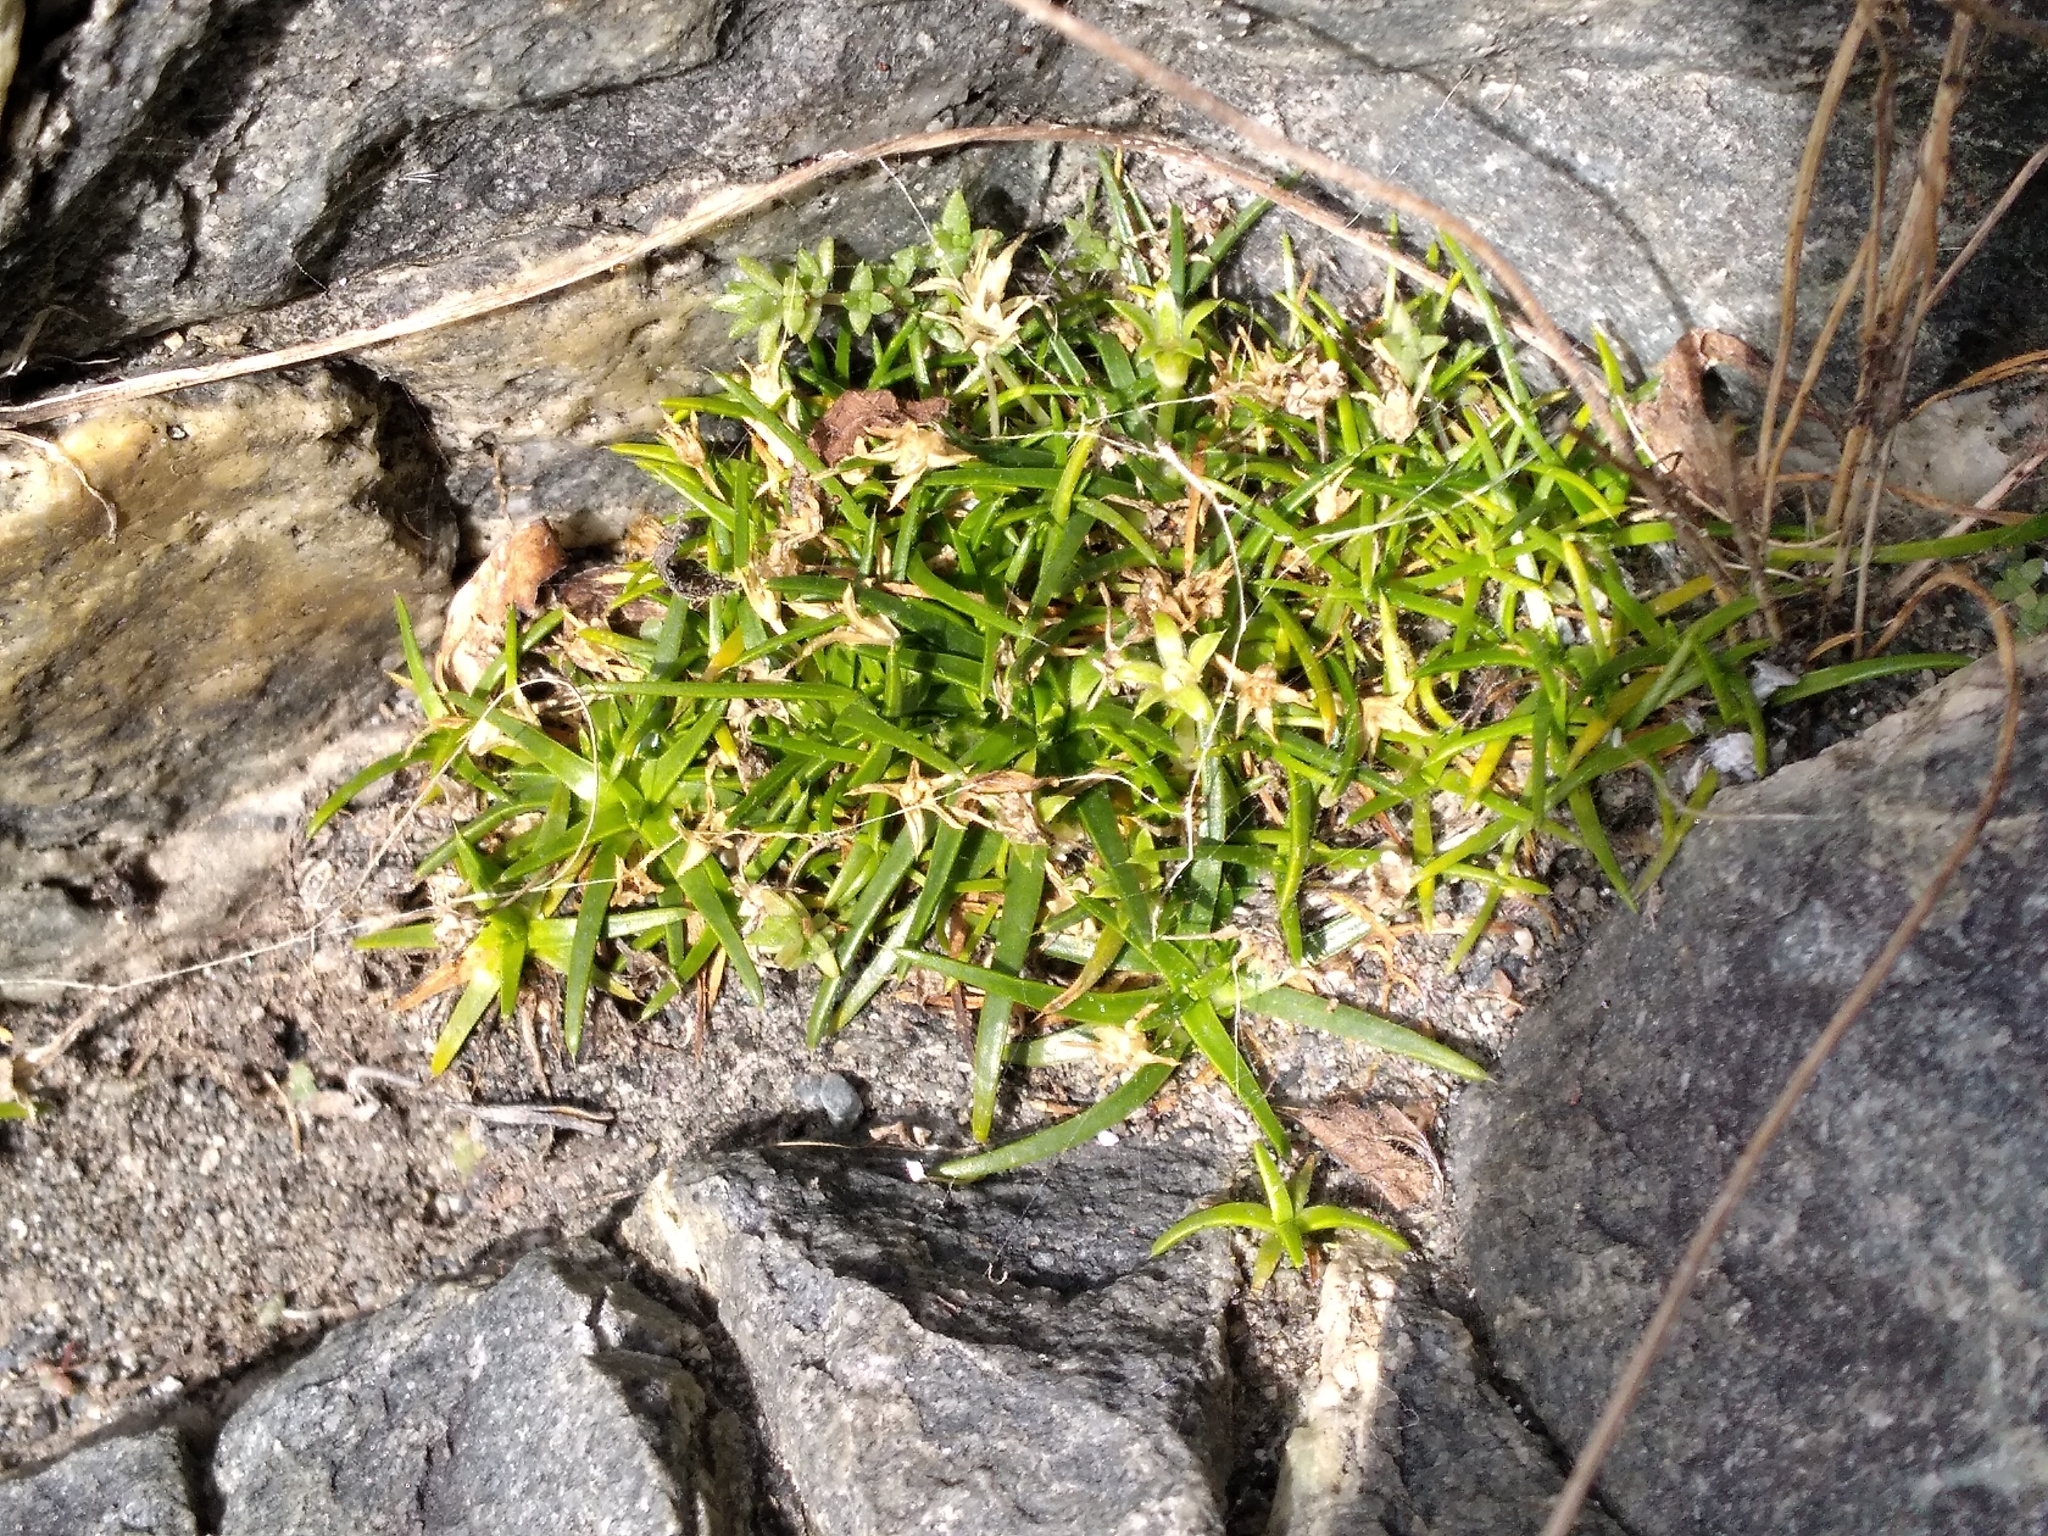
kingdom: Plantae
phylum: Tracheophyta
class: Magnoliopsida
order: Caryophyllales
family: Caryophyllaceae
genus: Colobanthus
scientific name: Colobanthus muelleri
